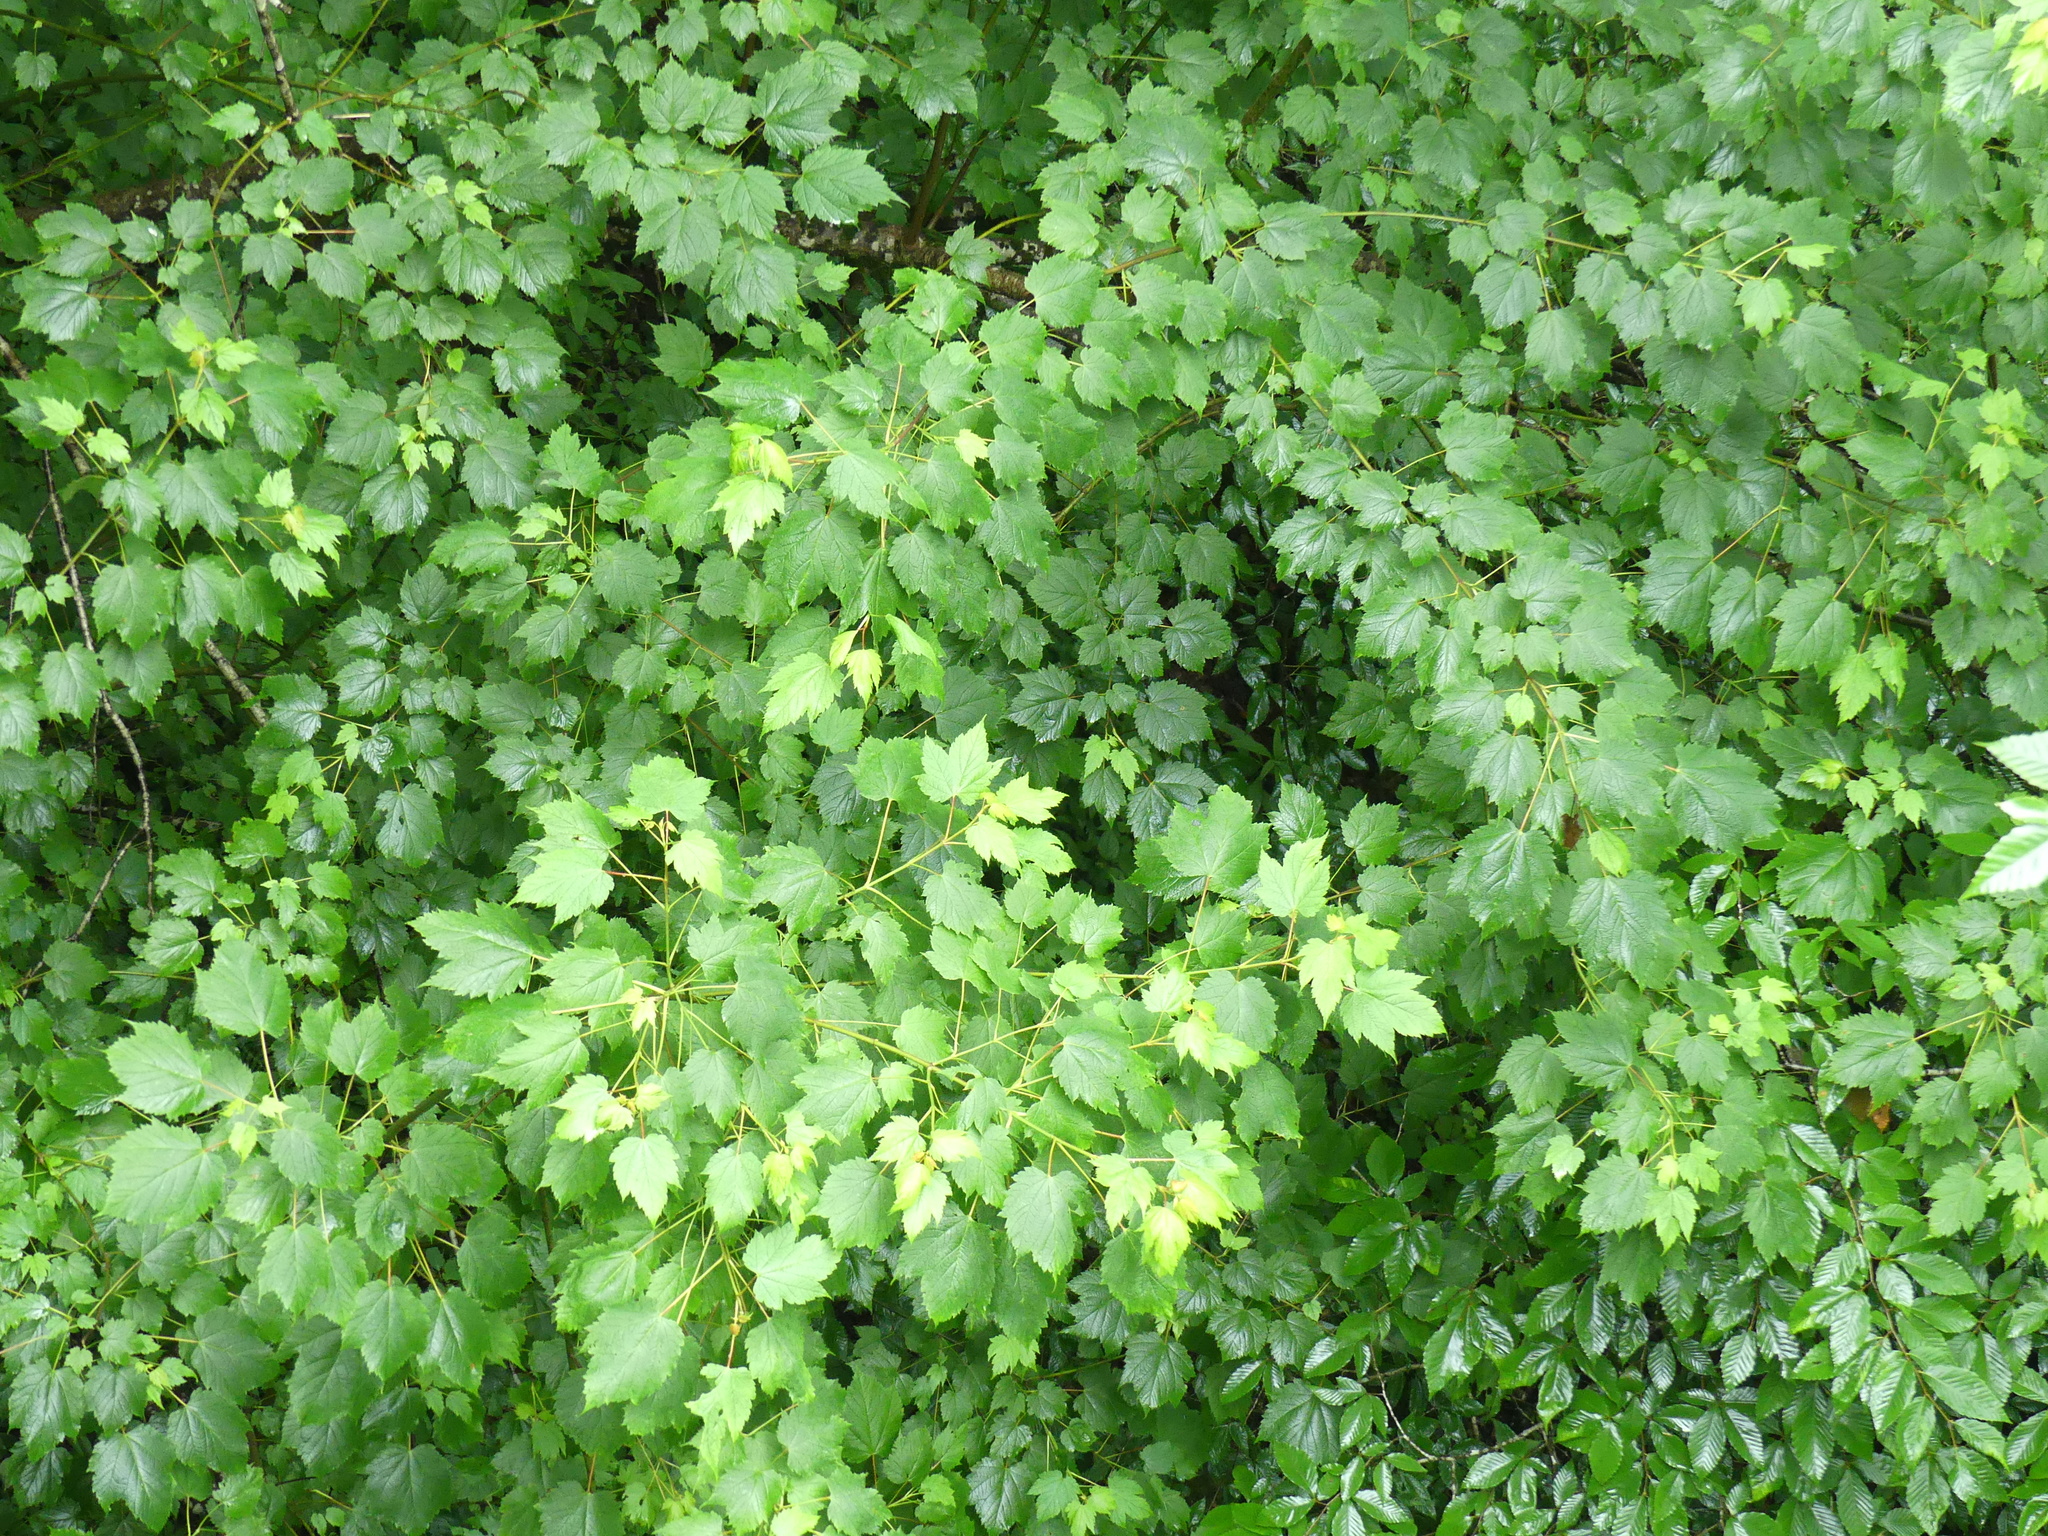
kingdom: Plantae
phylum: Tracheophyta
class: Magnoliopsida
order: Sapindales
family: Sapindaceae
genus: Acer
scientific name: Acer spicatum
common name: Mountain maple
